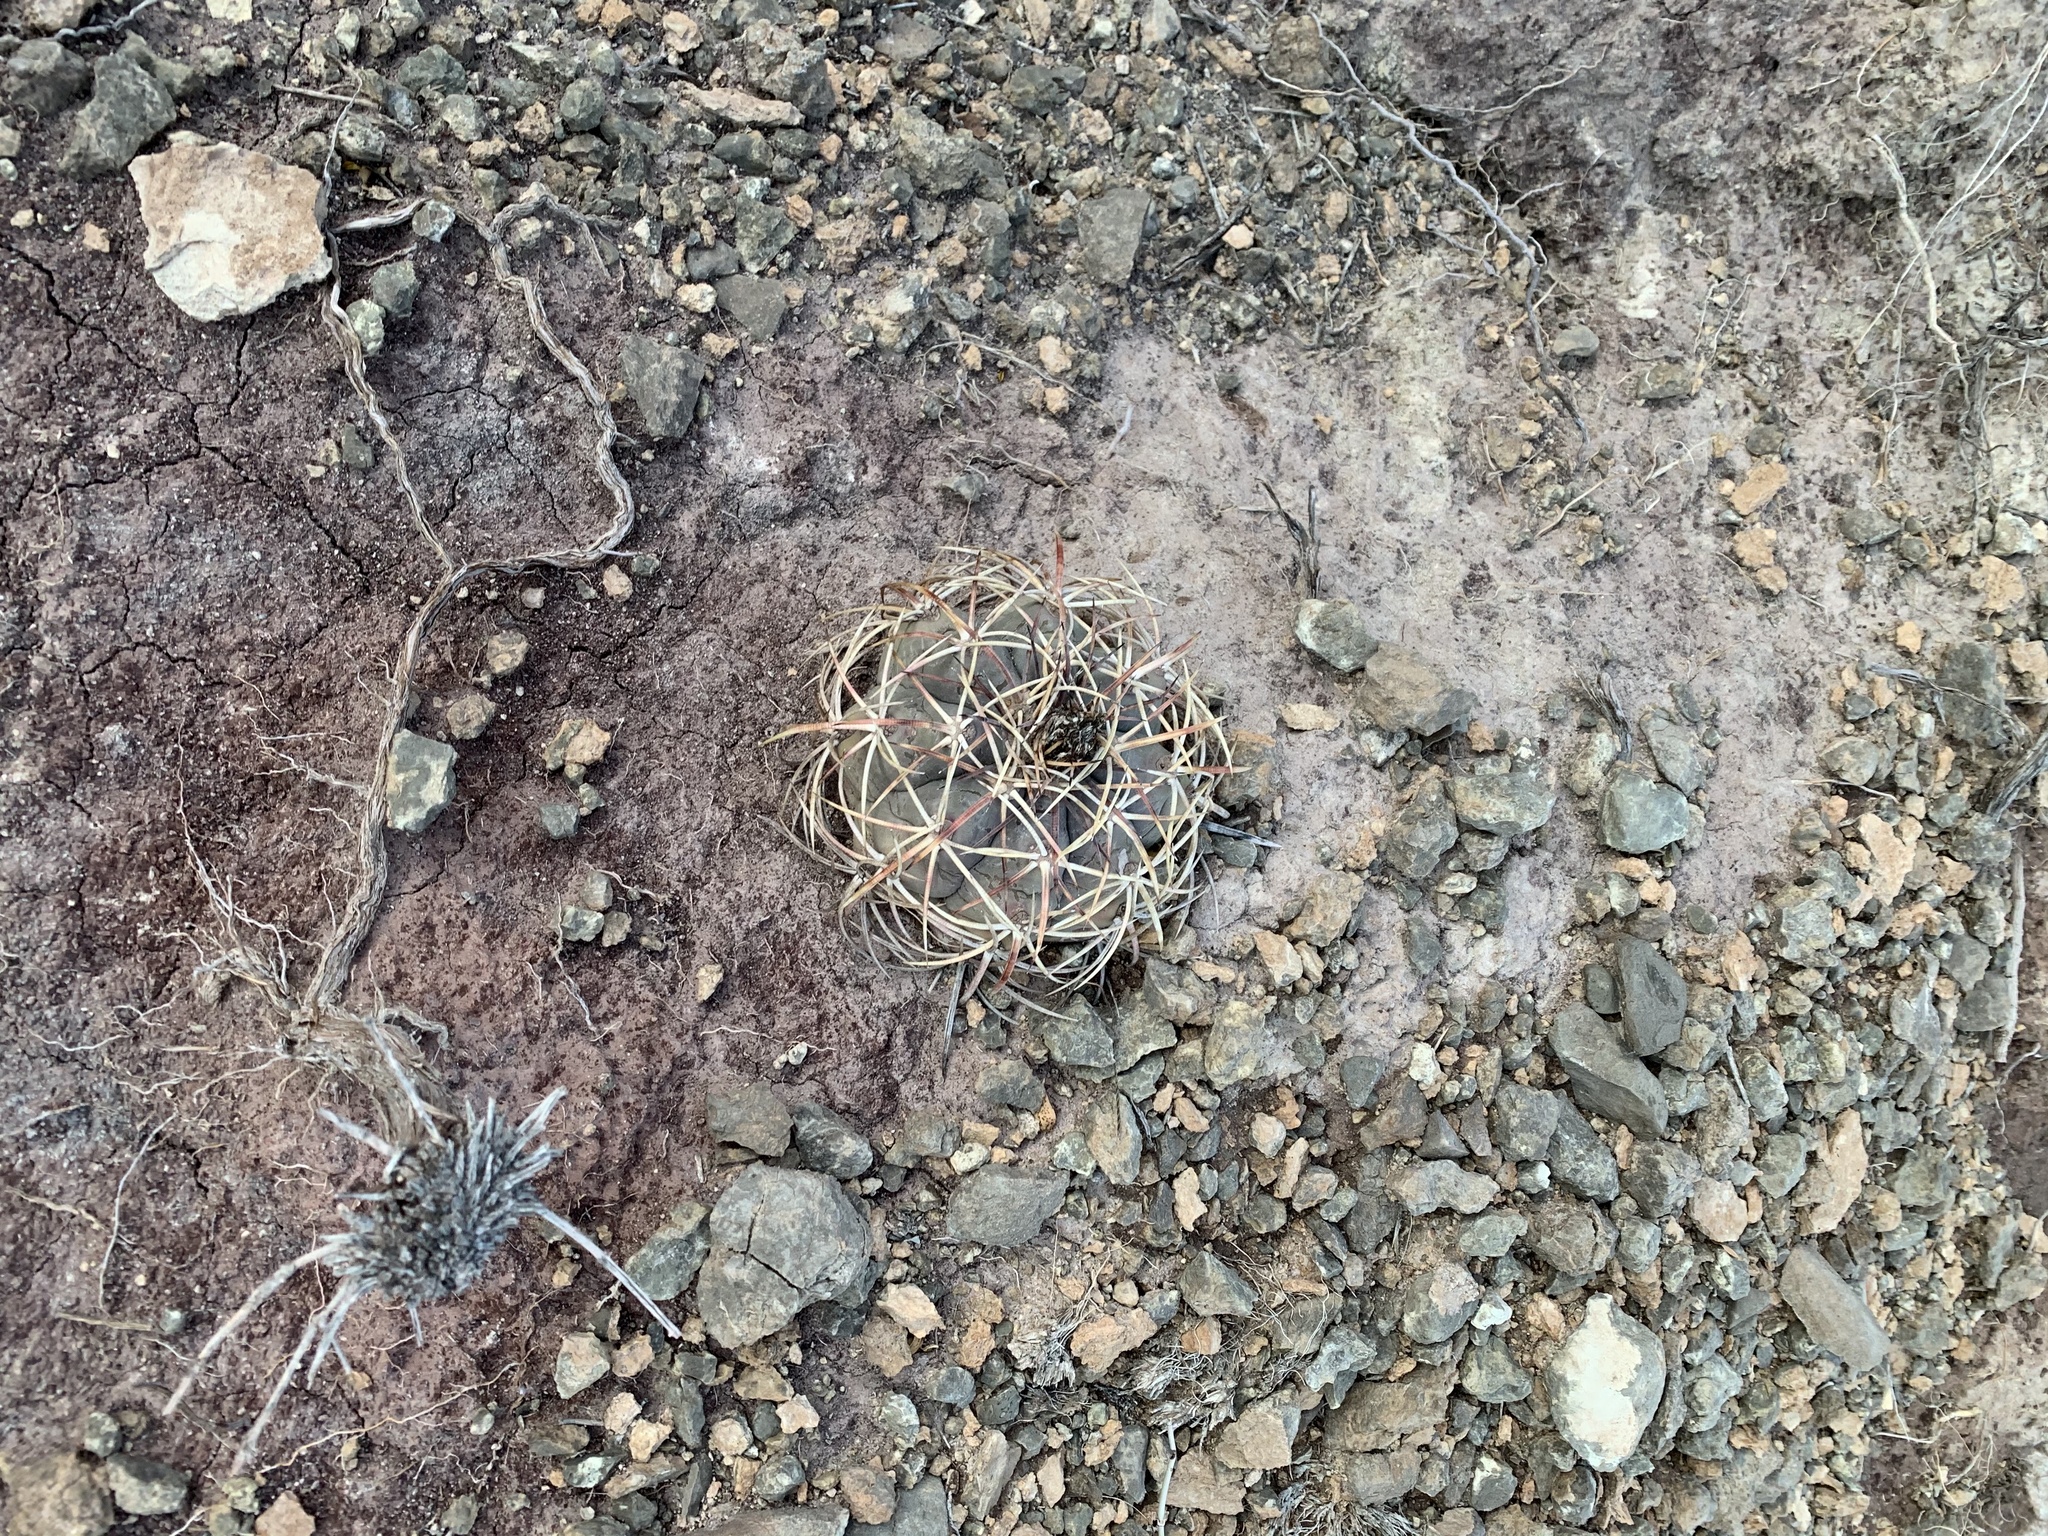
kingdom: Plantae
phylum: Tracheophyta
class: Magnoliopsida
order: Caryophyllales
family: Cactaceae
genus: Echinocactus
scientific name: Echinocactus horizonthalonius
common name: Devilshead
